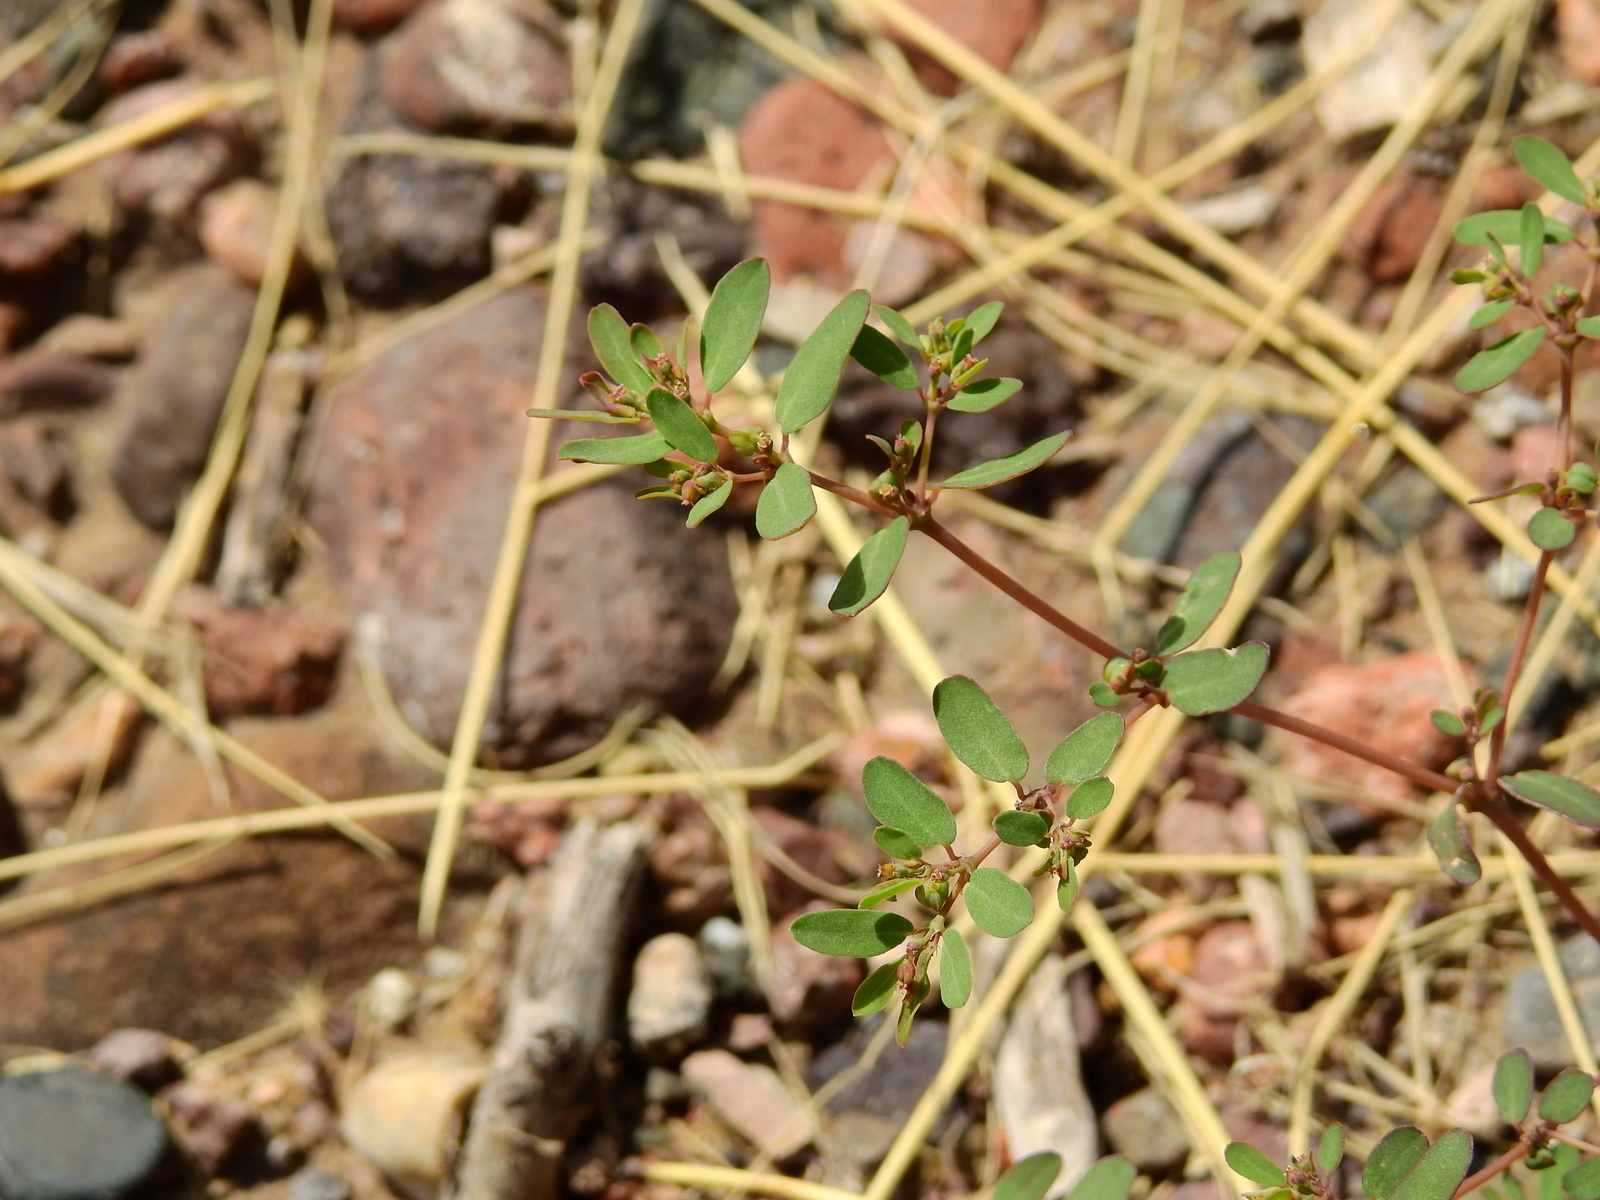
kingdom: Plantae
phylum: Tracheophyta
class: Magnoliopsida
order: Malpighiales
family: Euphorbiaceae
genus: Euphorbia
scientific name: Euphorbia serpillifolia
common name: Thyme-leaf spurge
